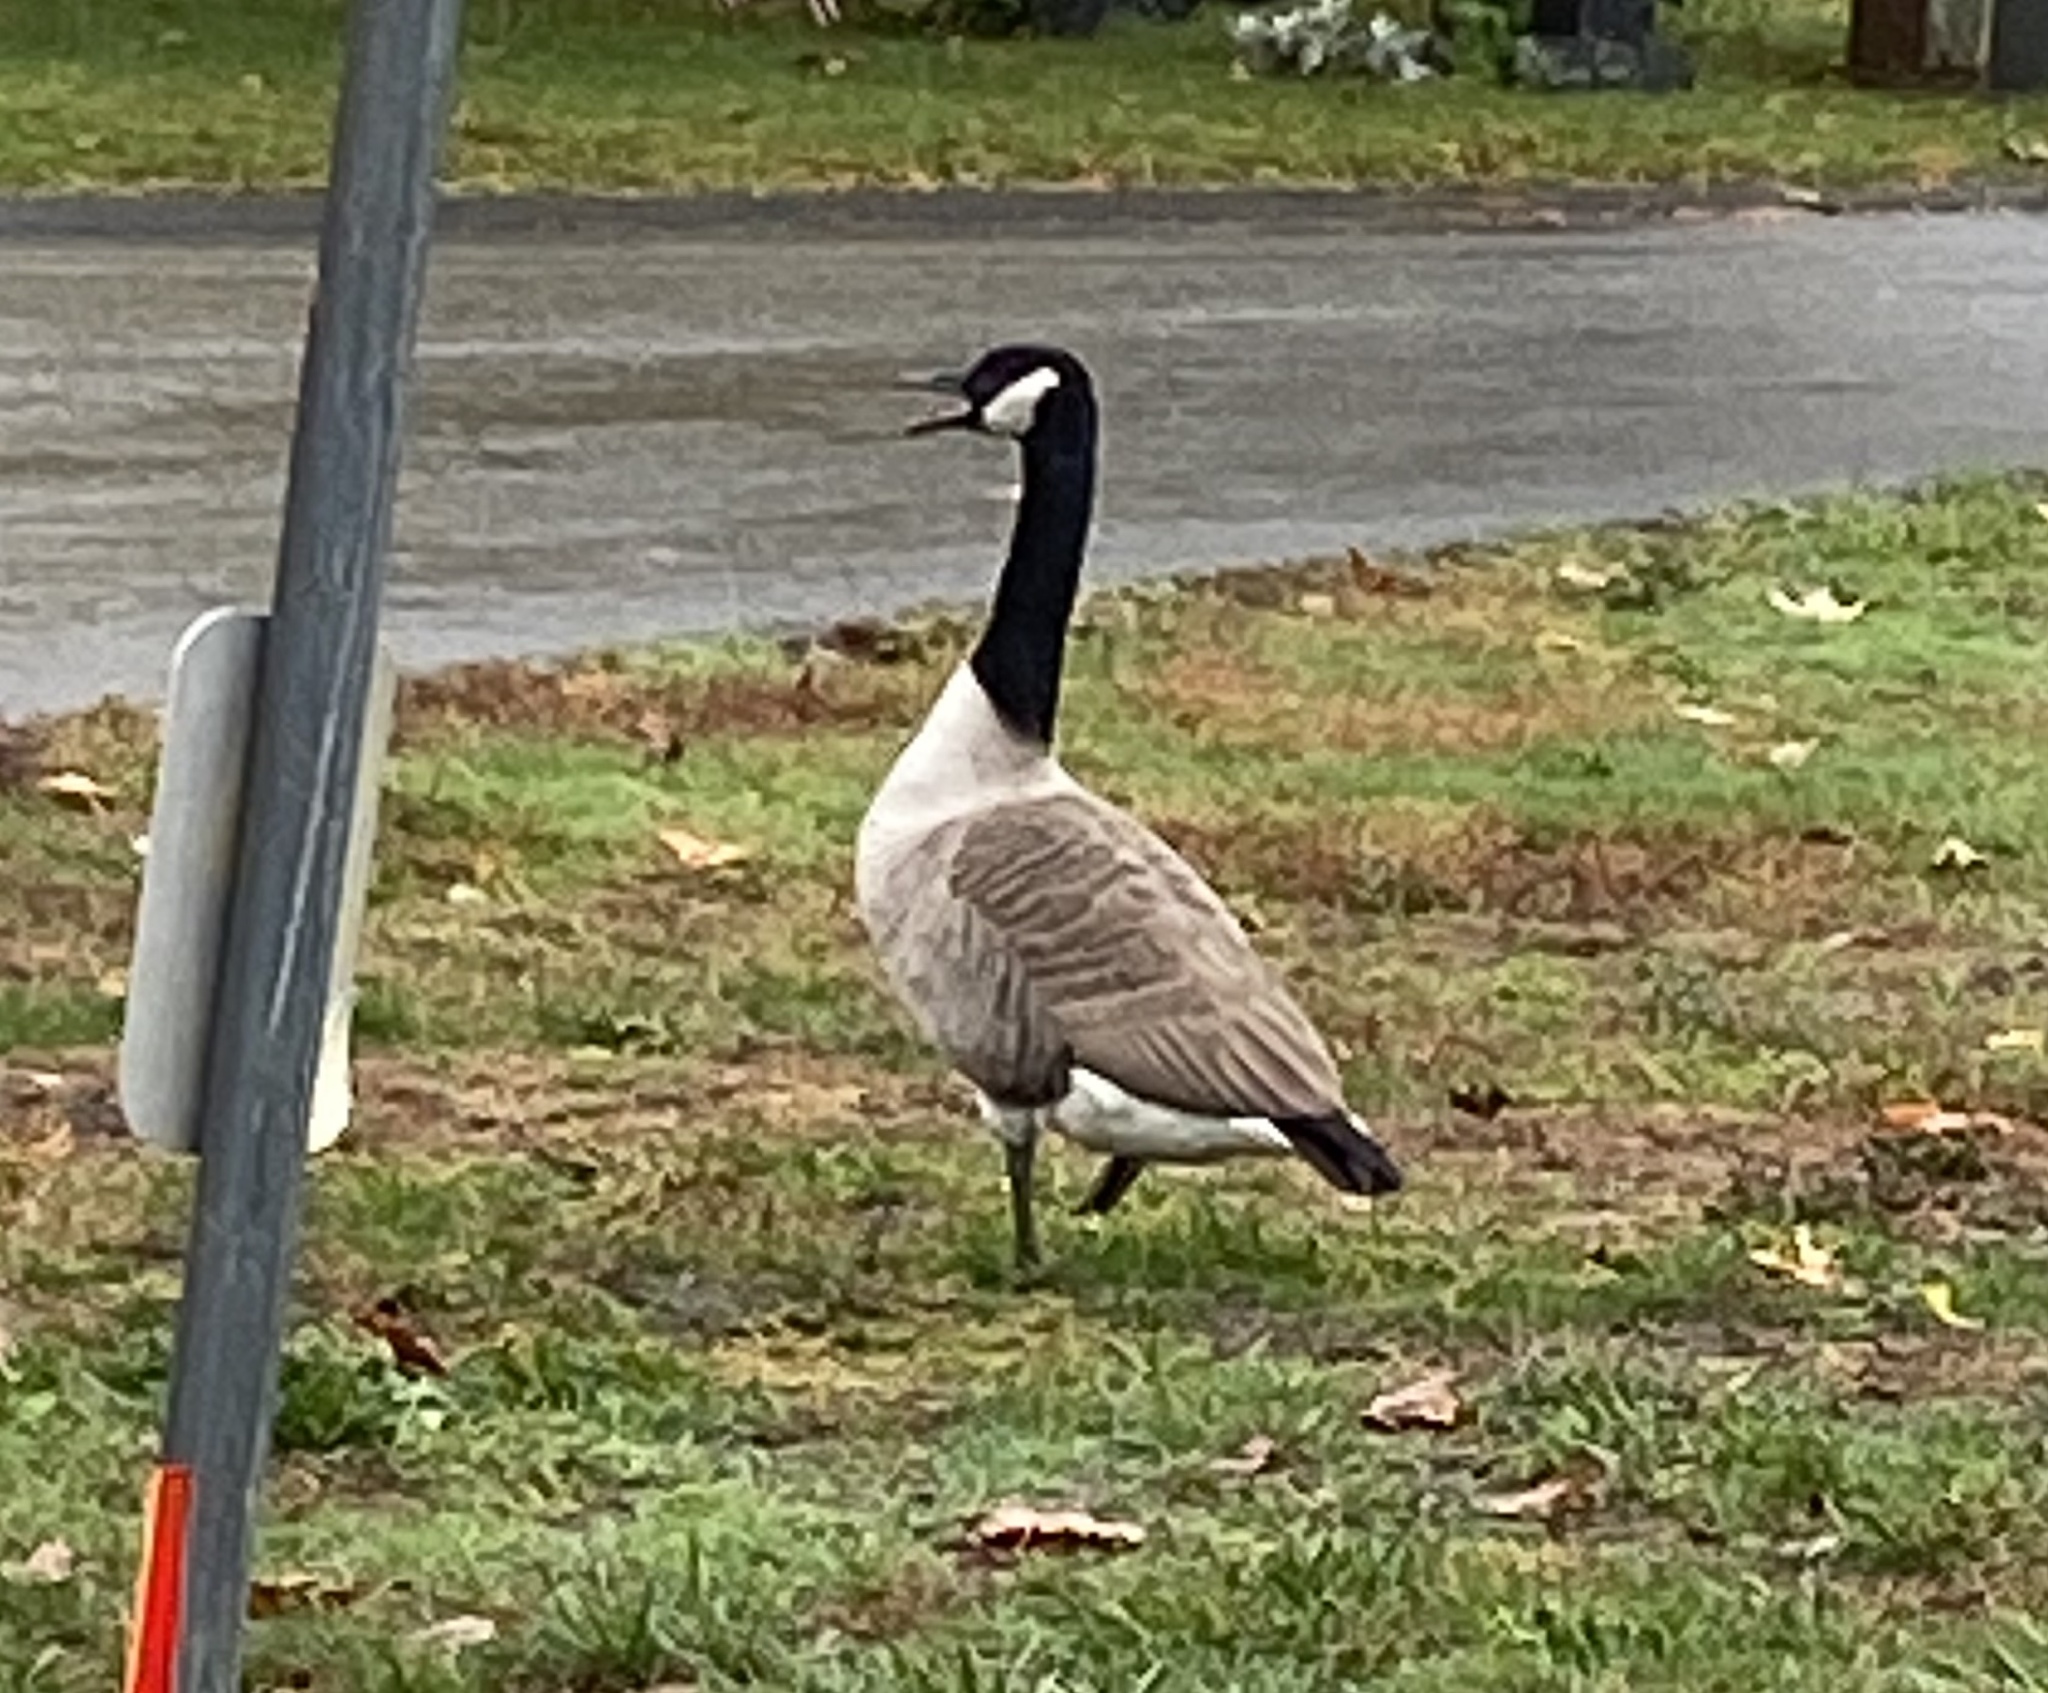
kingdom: Animalia
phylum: Chordata
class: Aves
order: Anseriformes
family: Anatidae
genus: Branta
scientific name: Branta canadensis
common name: Canada goose
